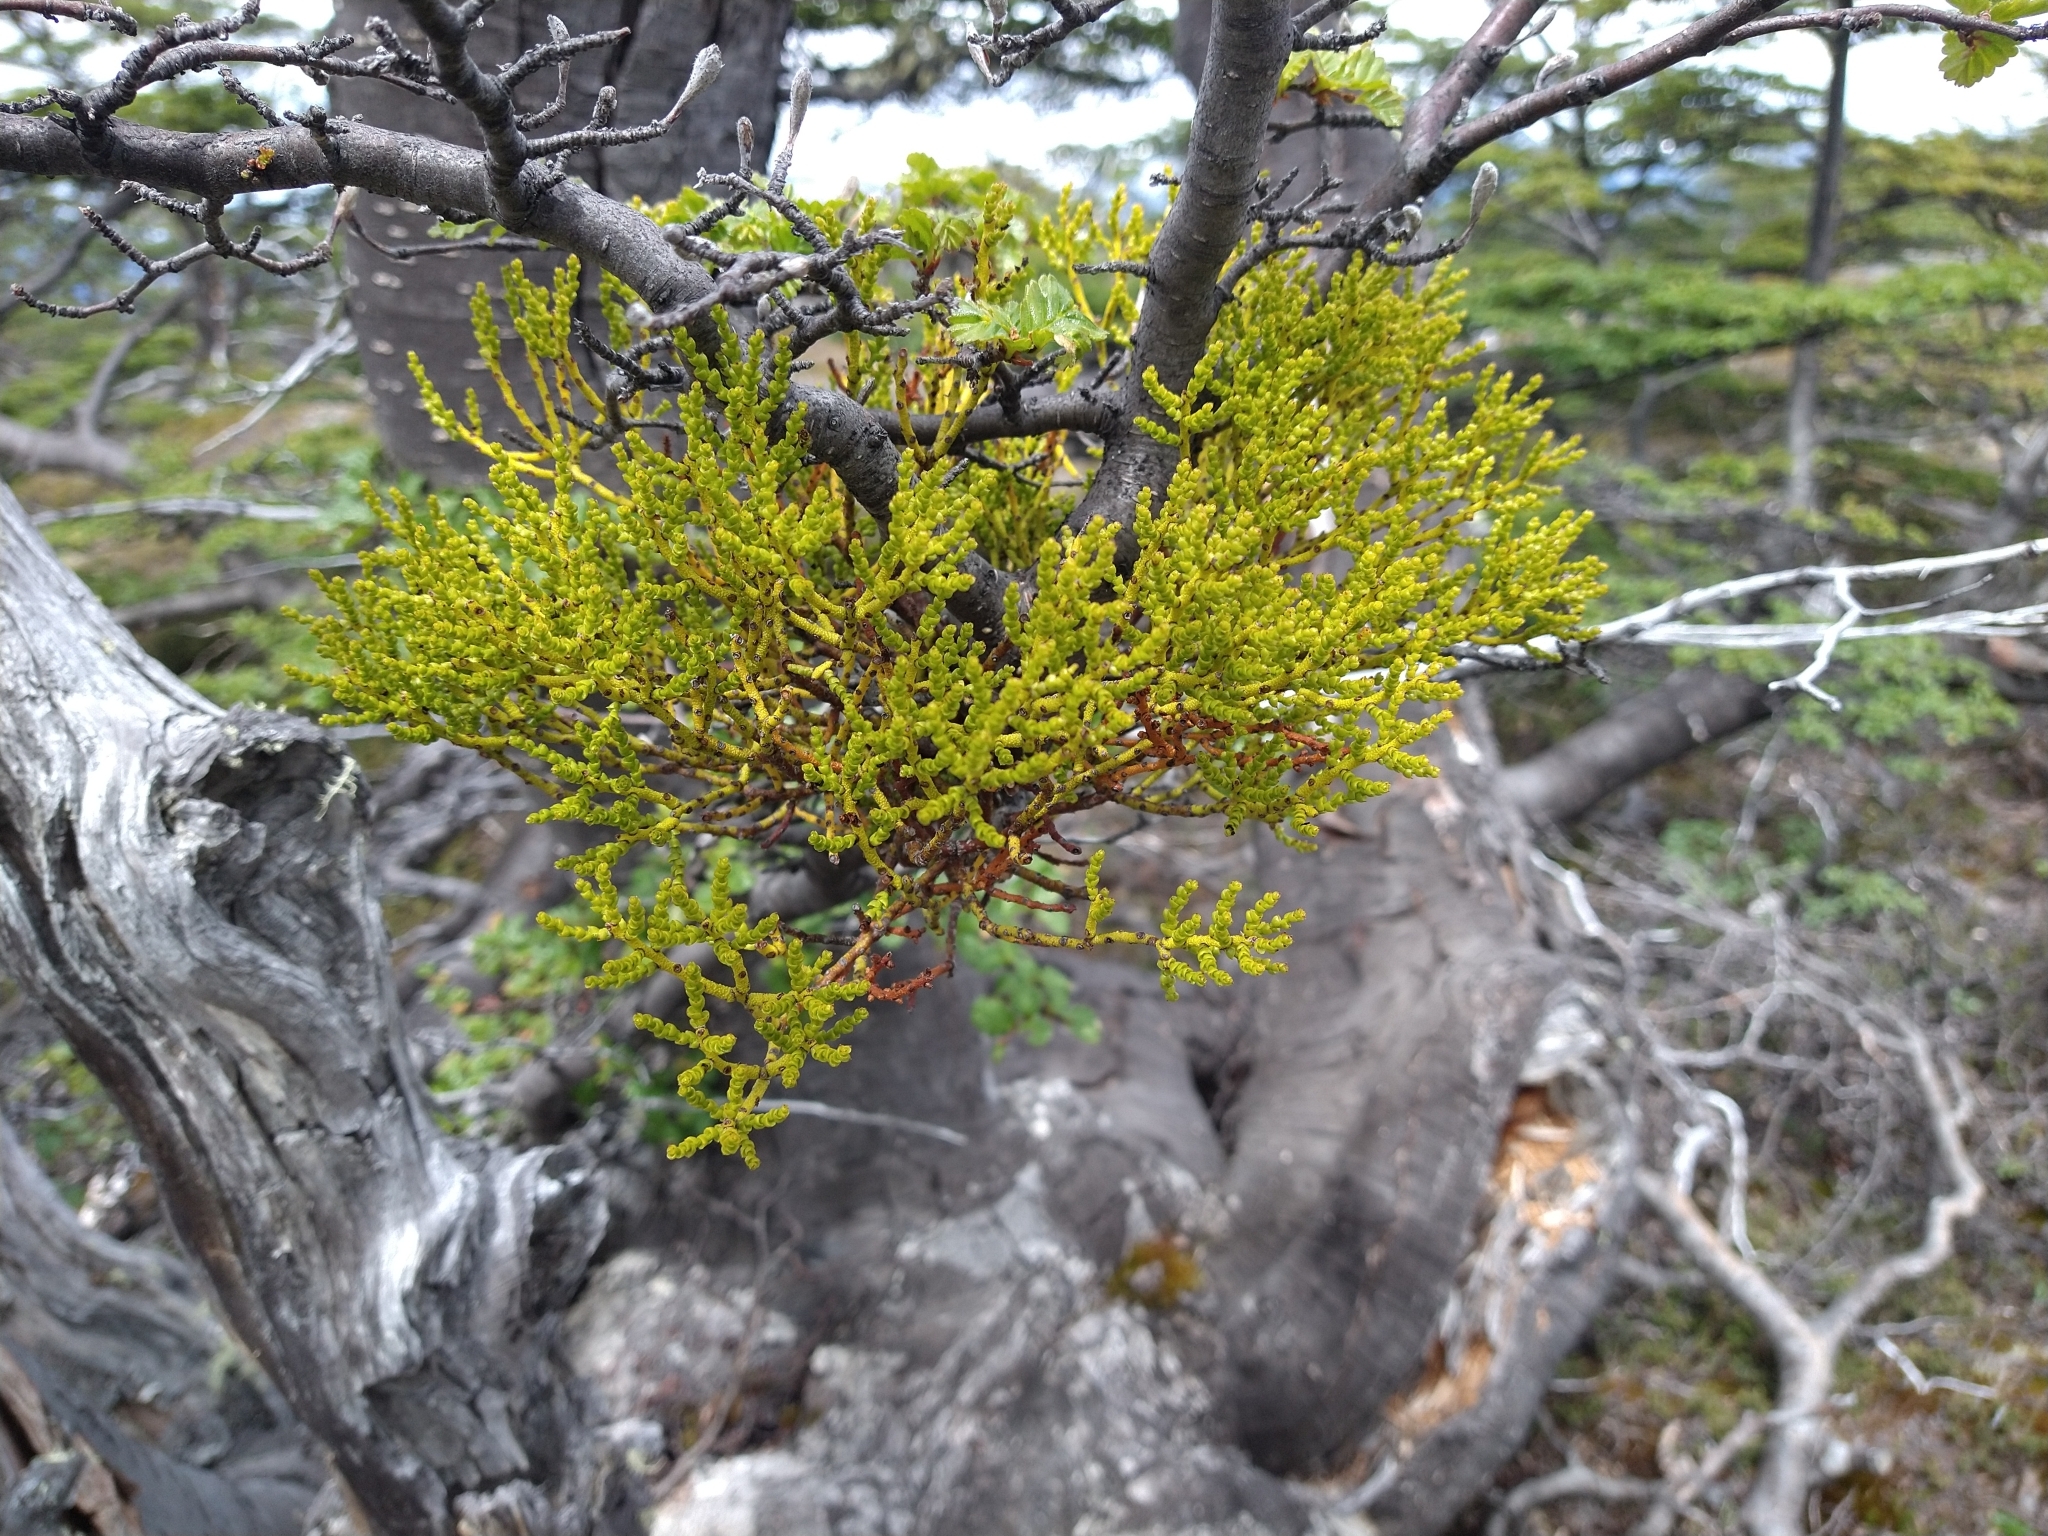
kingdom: Plantae
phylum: Tracheophyta
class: Magnoliopsida
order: Santalales
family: Misodendraceae
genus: Misodendrum
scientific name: Misodendrum punctulatum
